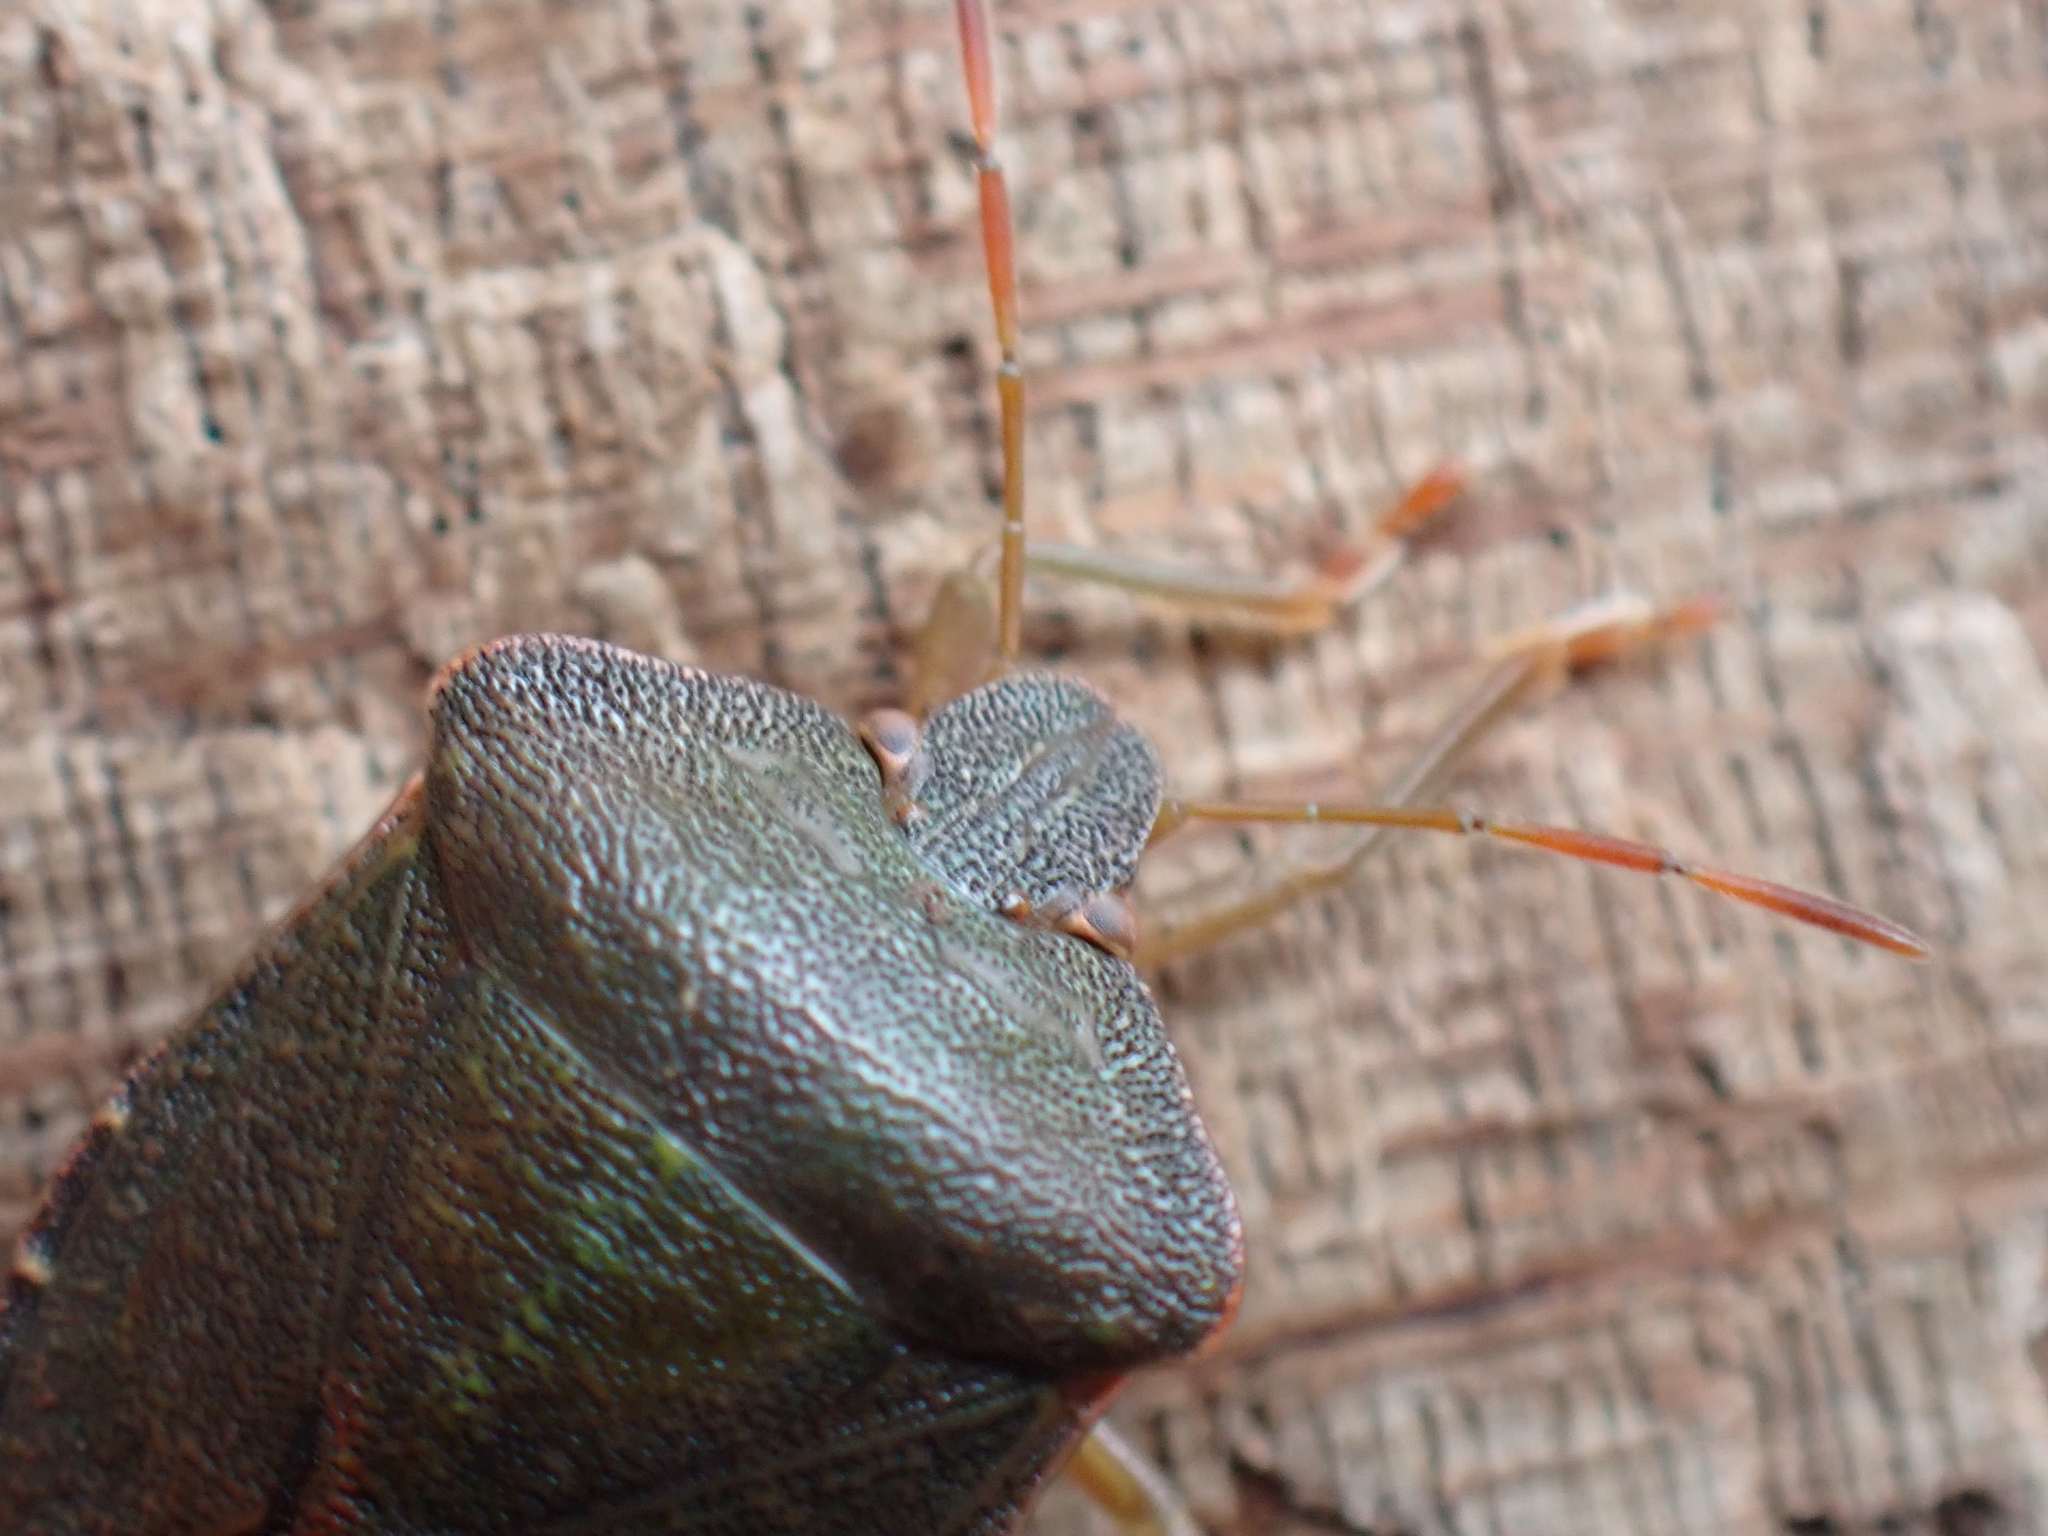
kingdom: Animalia
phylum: Arthropoda
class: Insecta
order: Hemiptera
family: Pentatomidae
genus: Palomena
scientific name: Palomena prasina
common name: Green shieldbug
